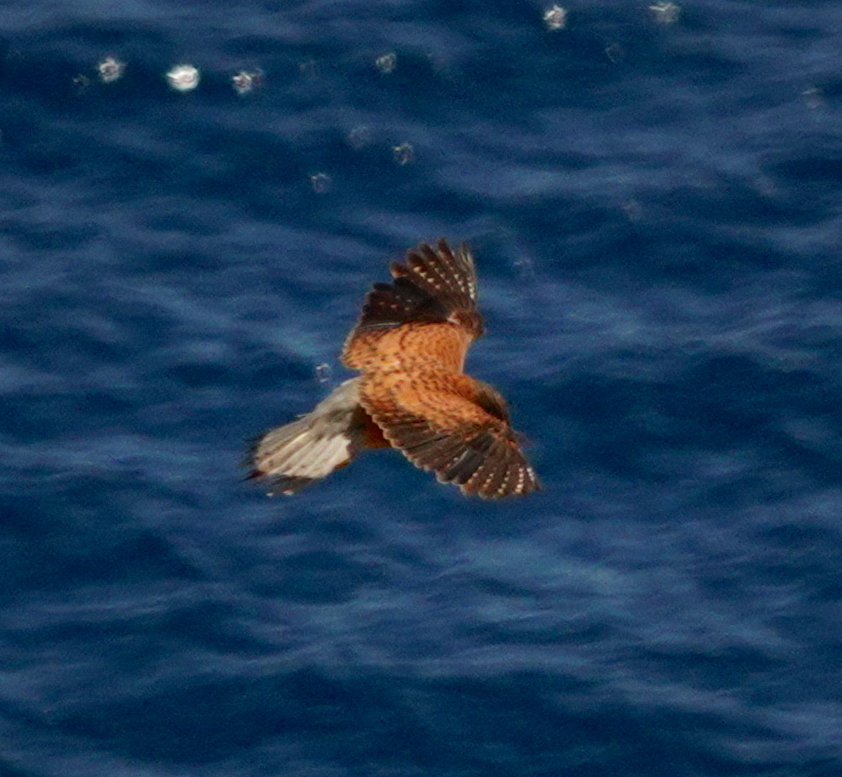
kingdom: Animalia
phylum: Chordata
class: Aves
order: Falconiformes
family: Falconidae
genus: Falco
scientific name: Falco tinnunculus
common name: Common kestrel
